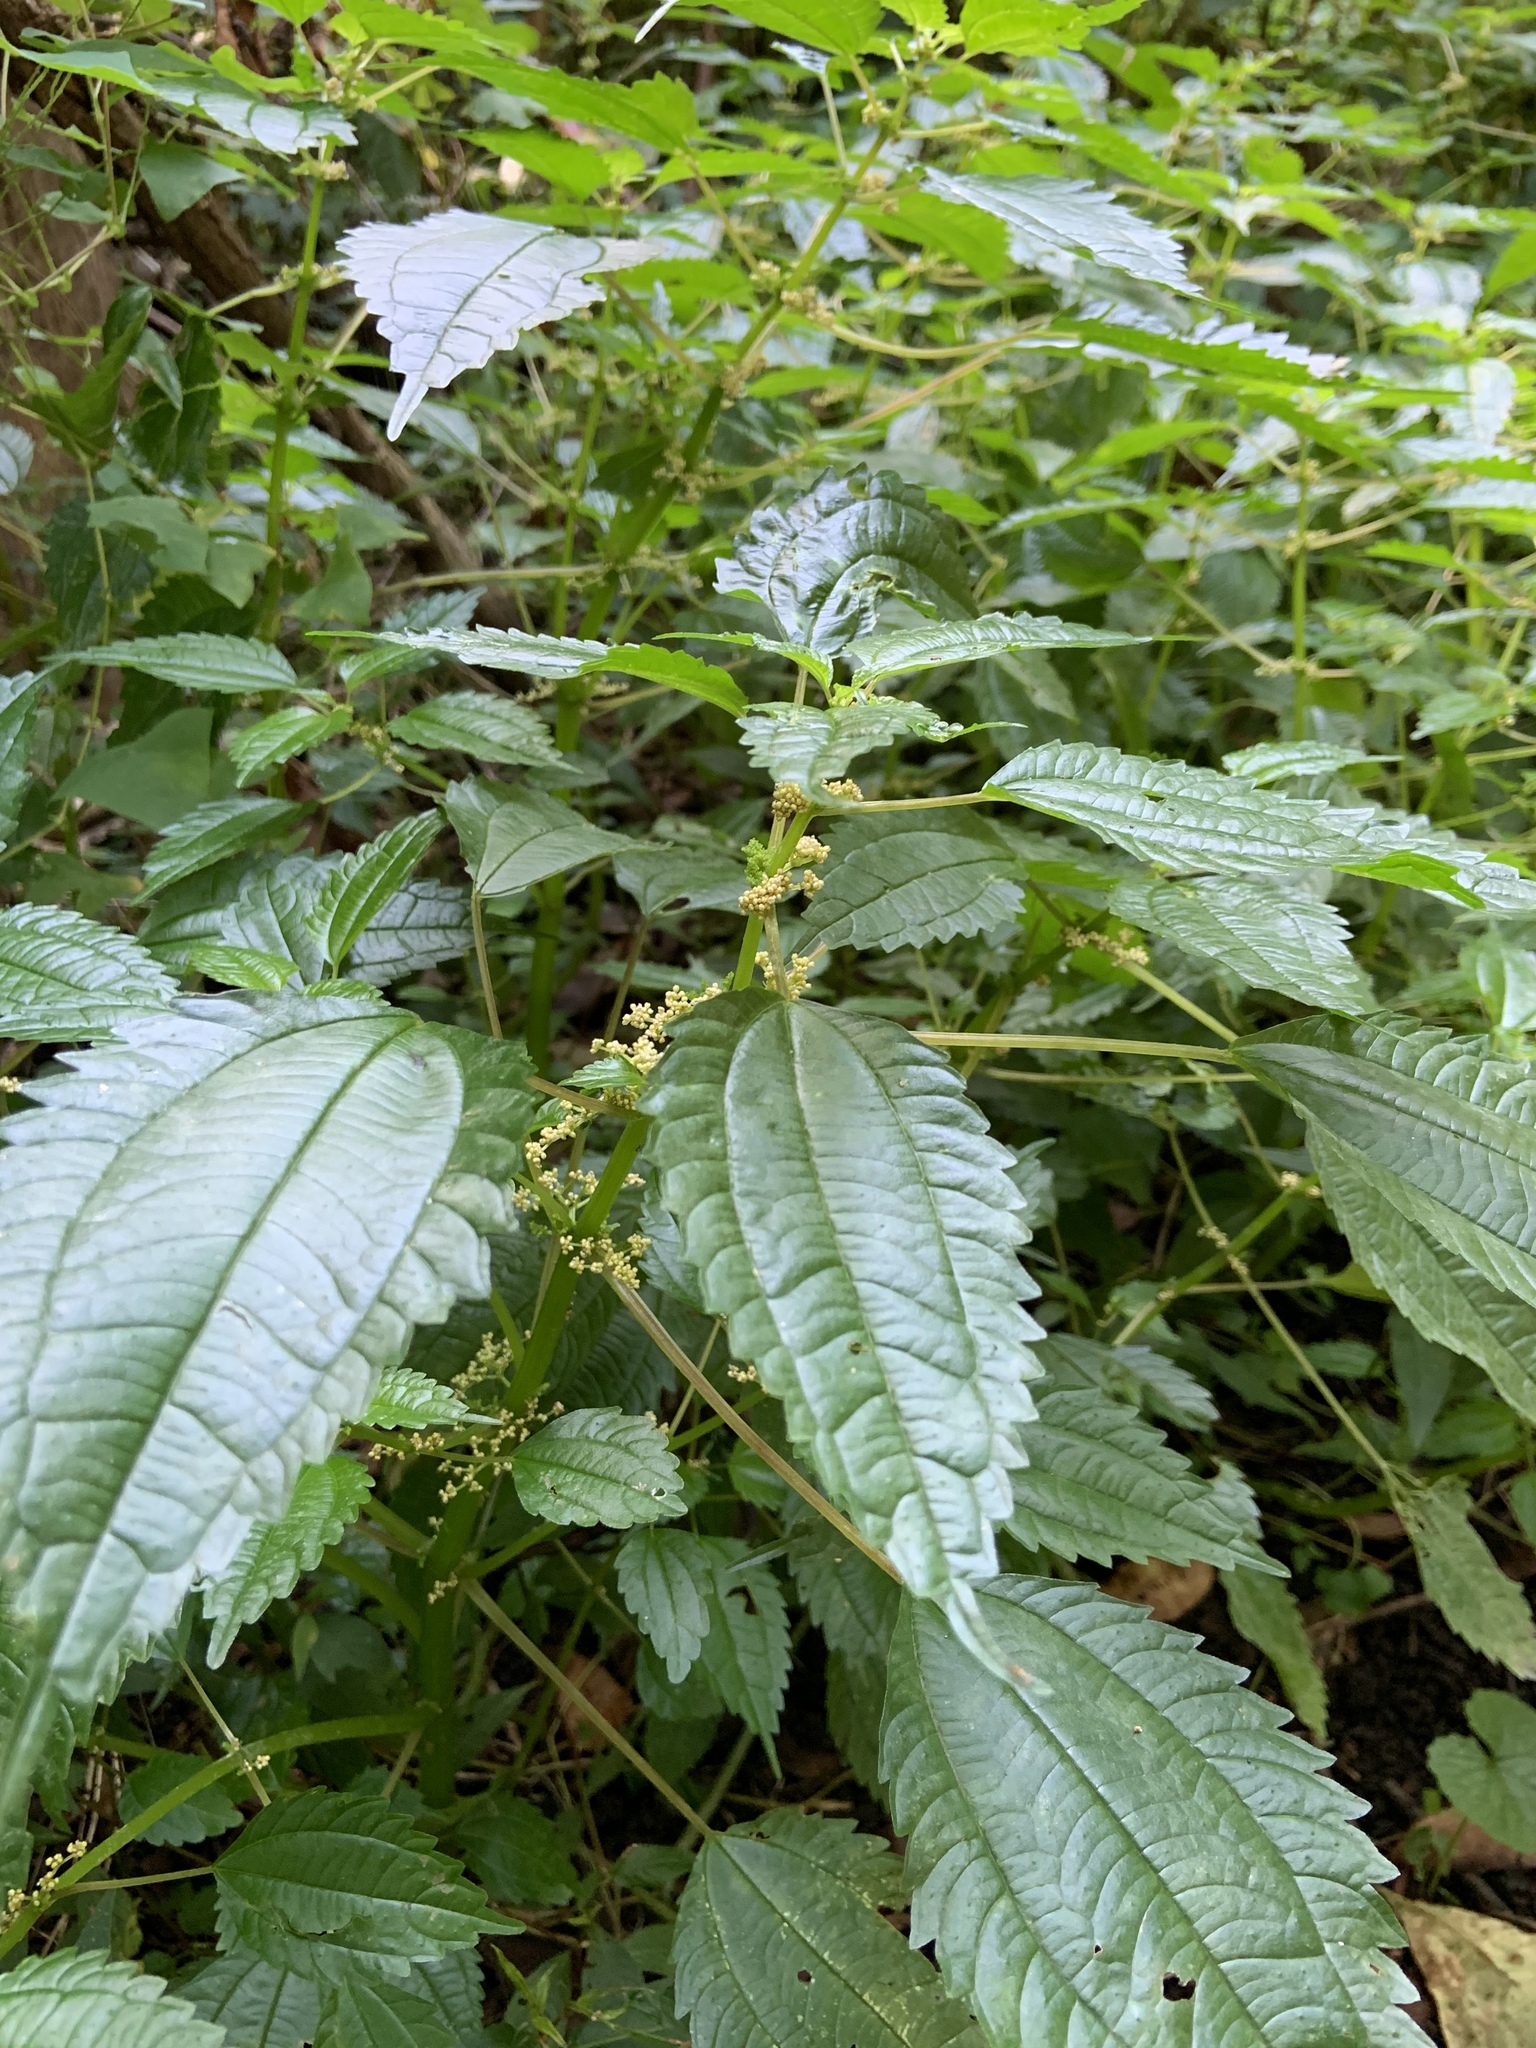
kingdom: Plantae
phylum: Tracheophyta
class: Magnoliopsida
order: Rosales
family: Urticaceae
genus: Pilea
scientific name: Pilea pumila
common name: Clearweed
